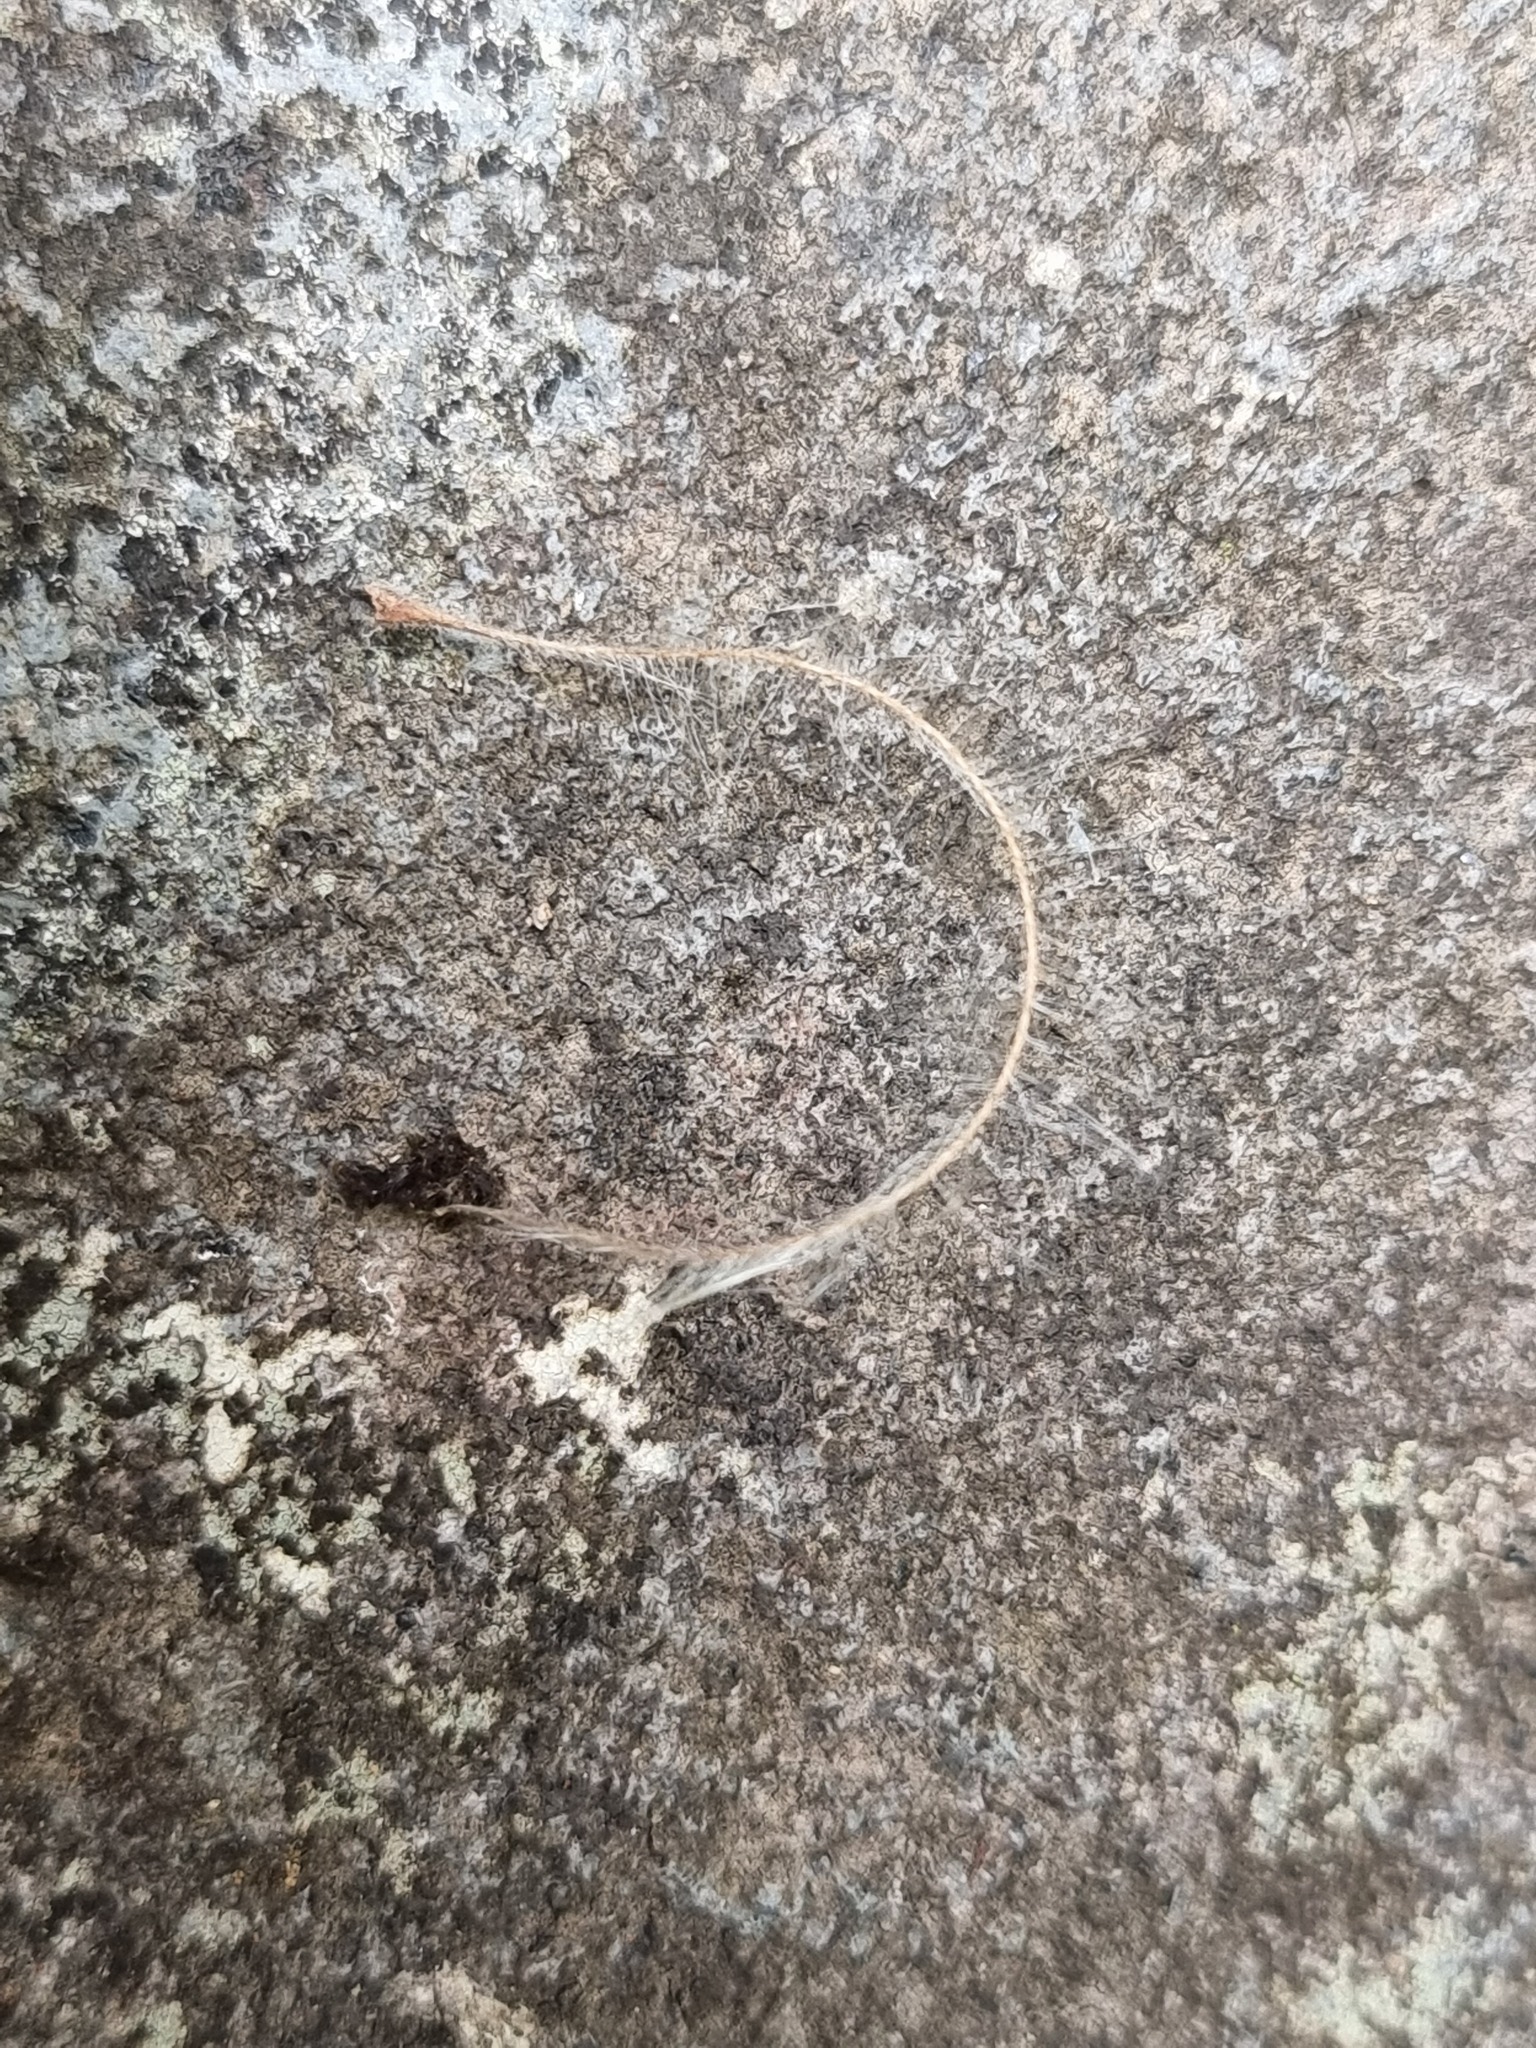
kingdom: Animalia
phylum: Chordata
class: Aves
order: Apterygiformes
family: Apterygidae
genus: Apteryx
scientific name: Apteryx mantelli
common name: North island brown kiwi
